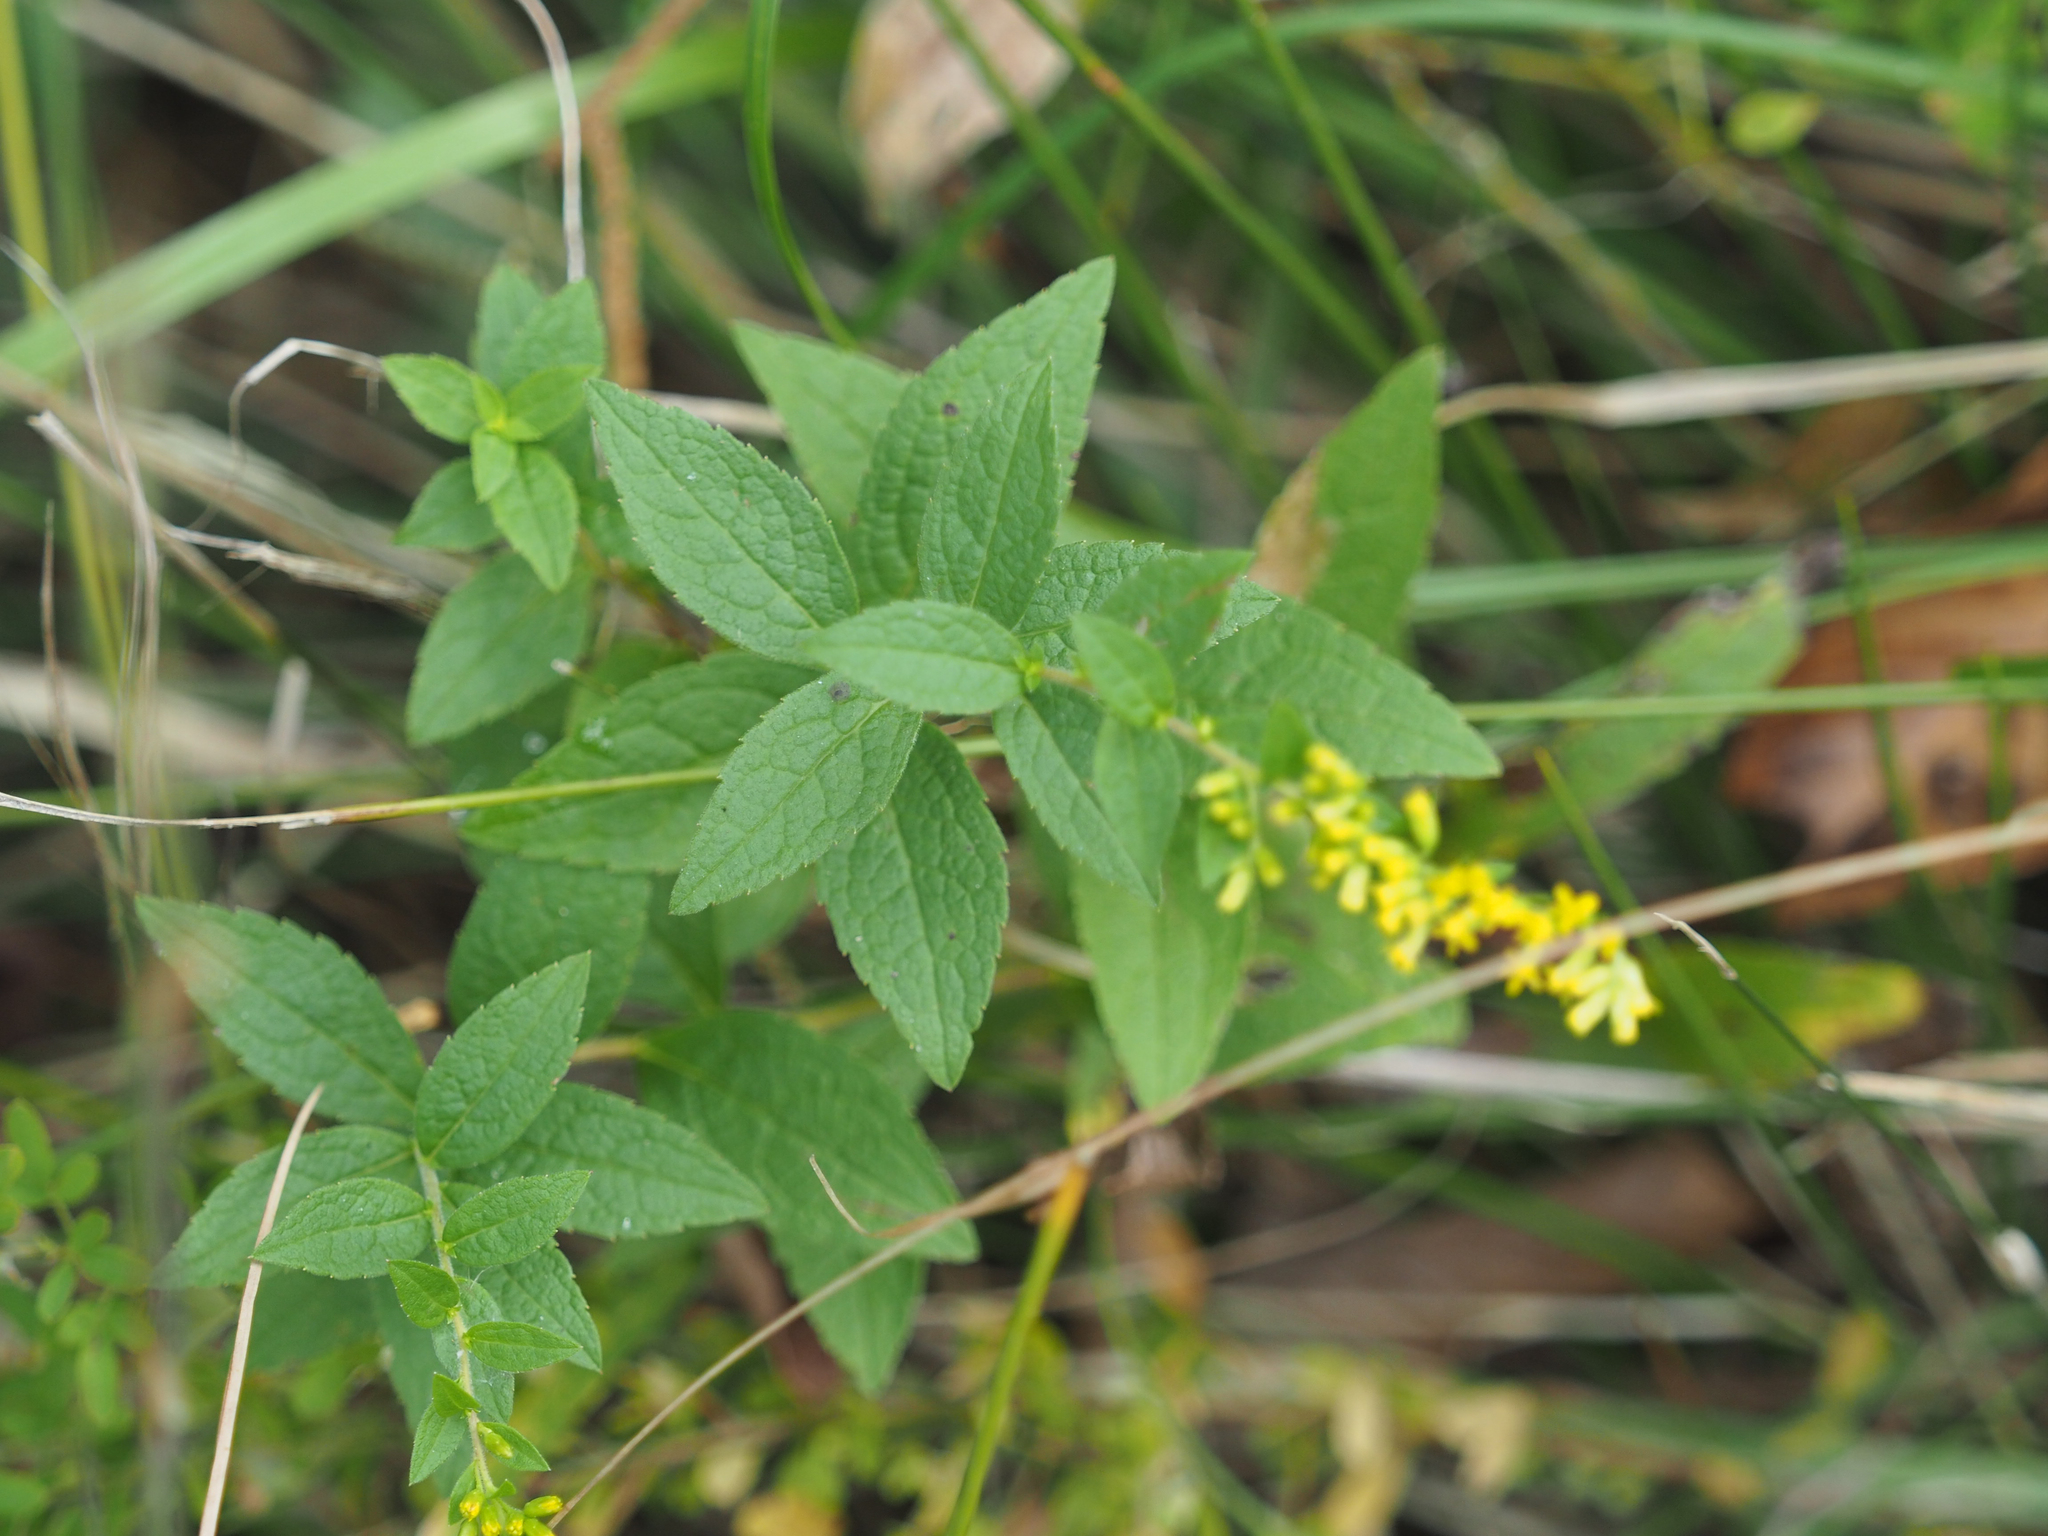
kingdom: Plantae
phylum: Tracheophyta
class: Magnoliopsida
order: Asterales
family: Asteraceae
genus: Solidago
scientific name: Solidago rugosa
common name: Rough-stemmed goldenrod
